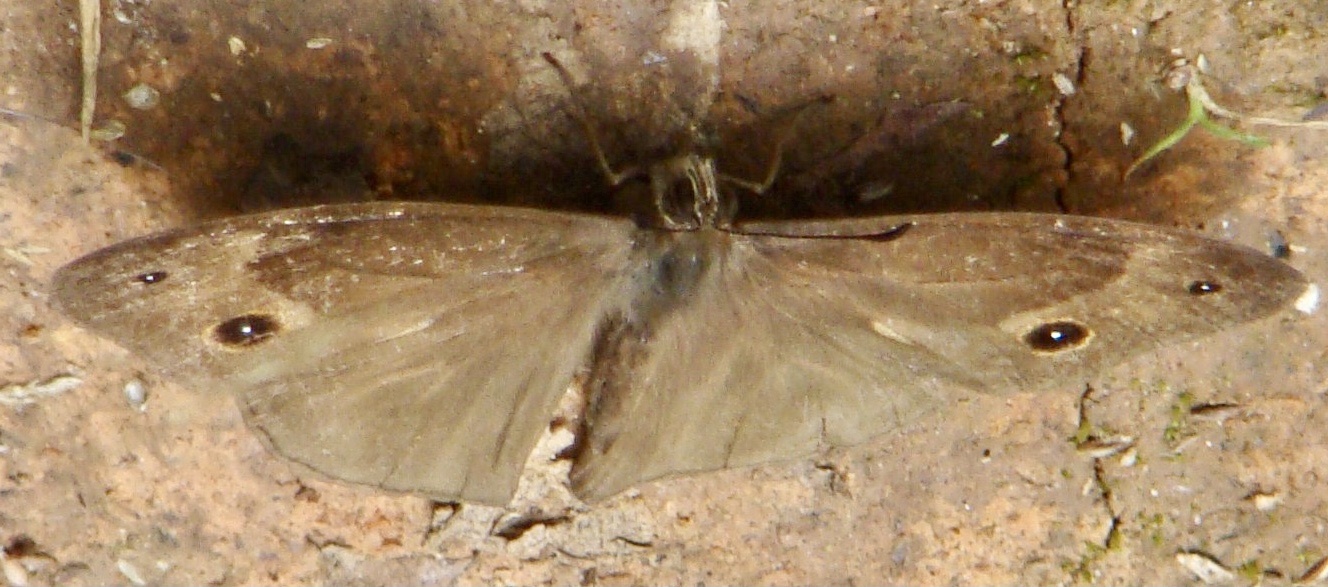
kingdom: Animalia
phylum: Arthropoda
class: Insecta
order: Lepidoptera
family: Nymphalidae
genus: Bicyclus
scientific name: Bicyclus simulacris
